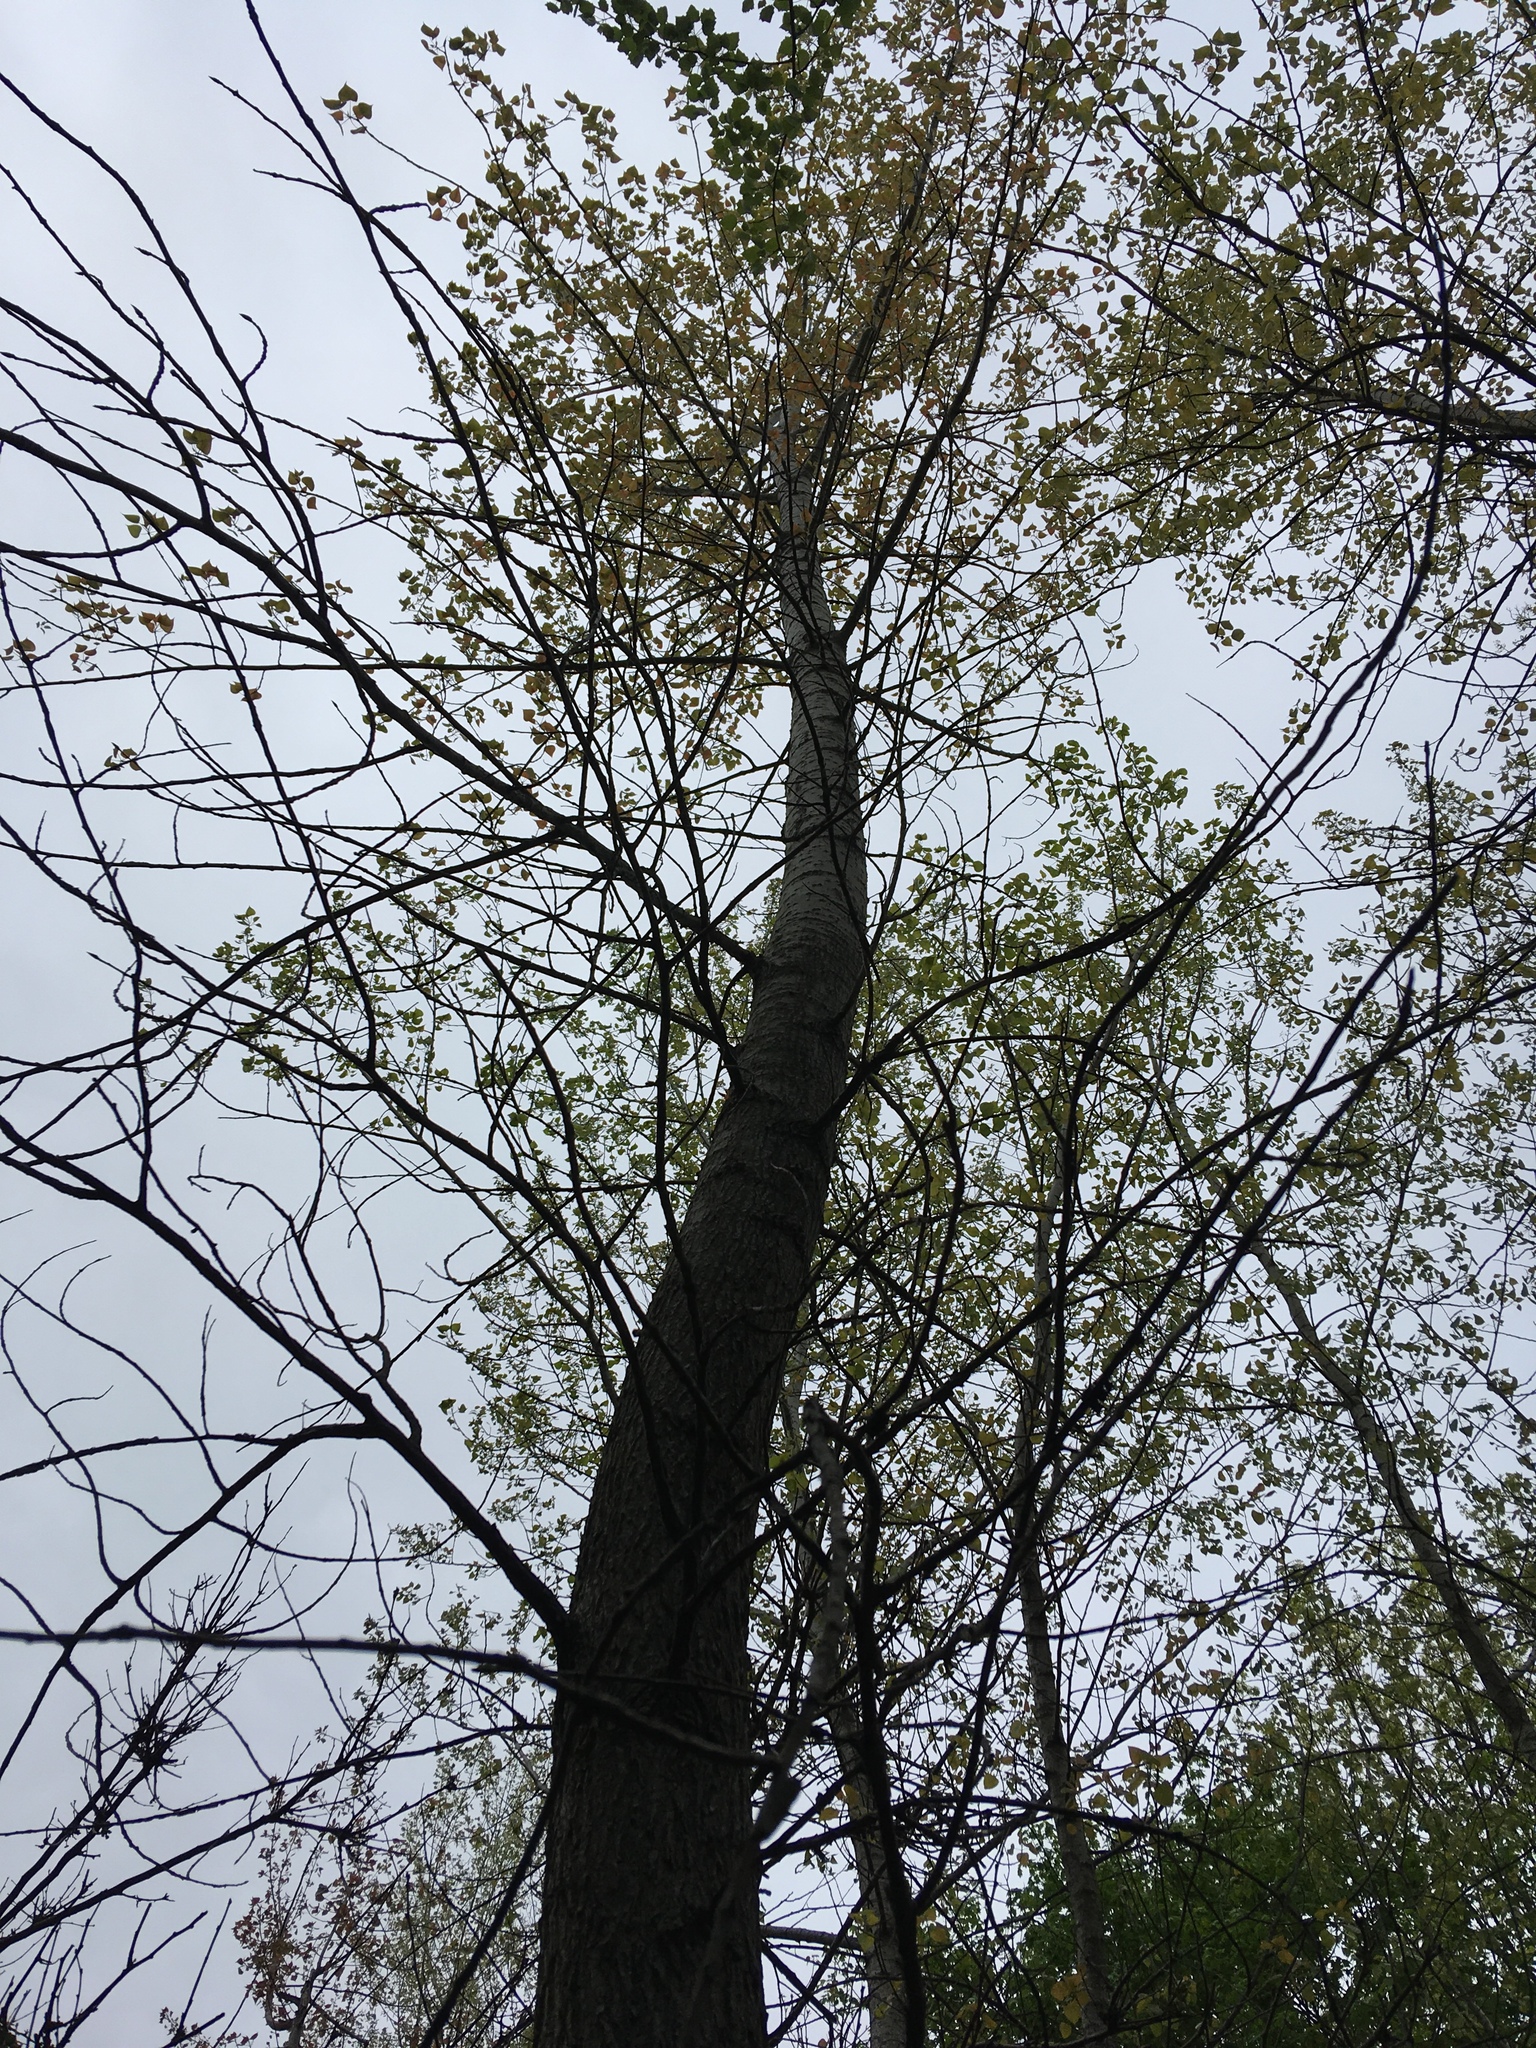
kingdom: Plantae
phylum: Tracheophyta
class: Magnoliopsida
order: Malpighiales
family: Salicaceae
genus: Populus
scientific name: Populus deltoides
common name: Eastern cottonwood
